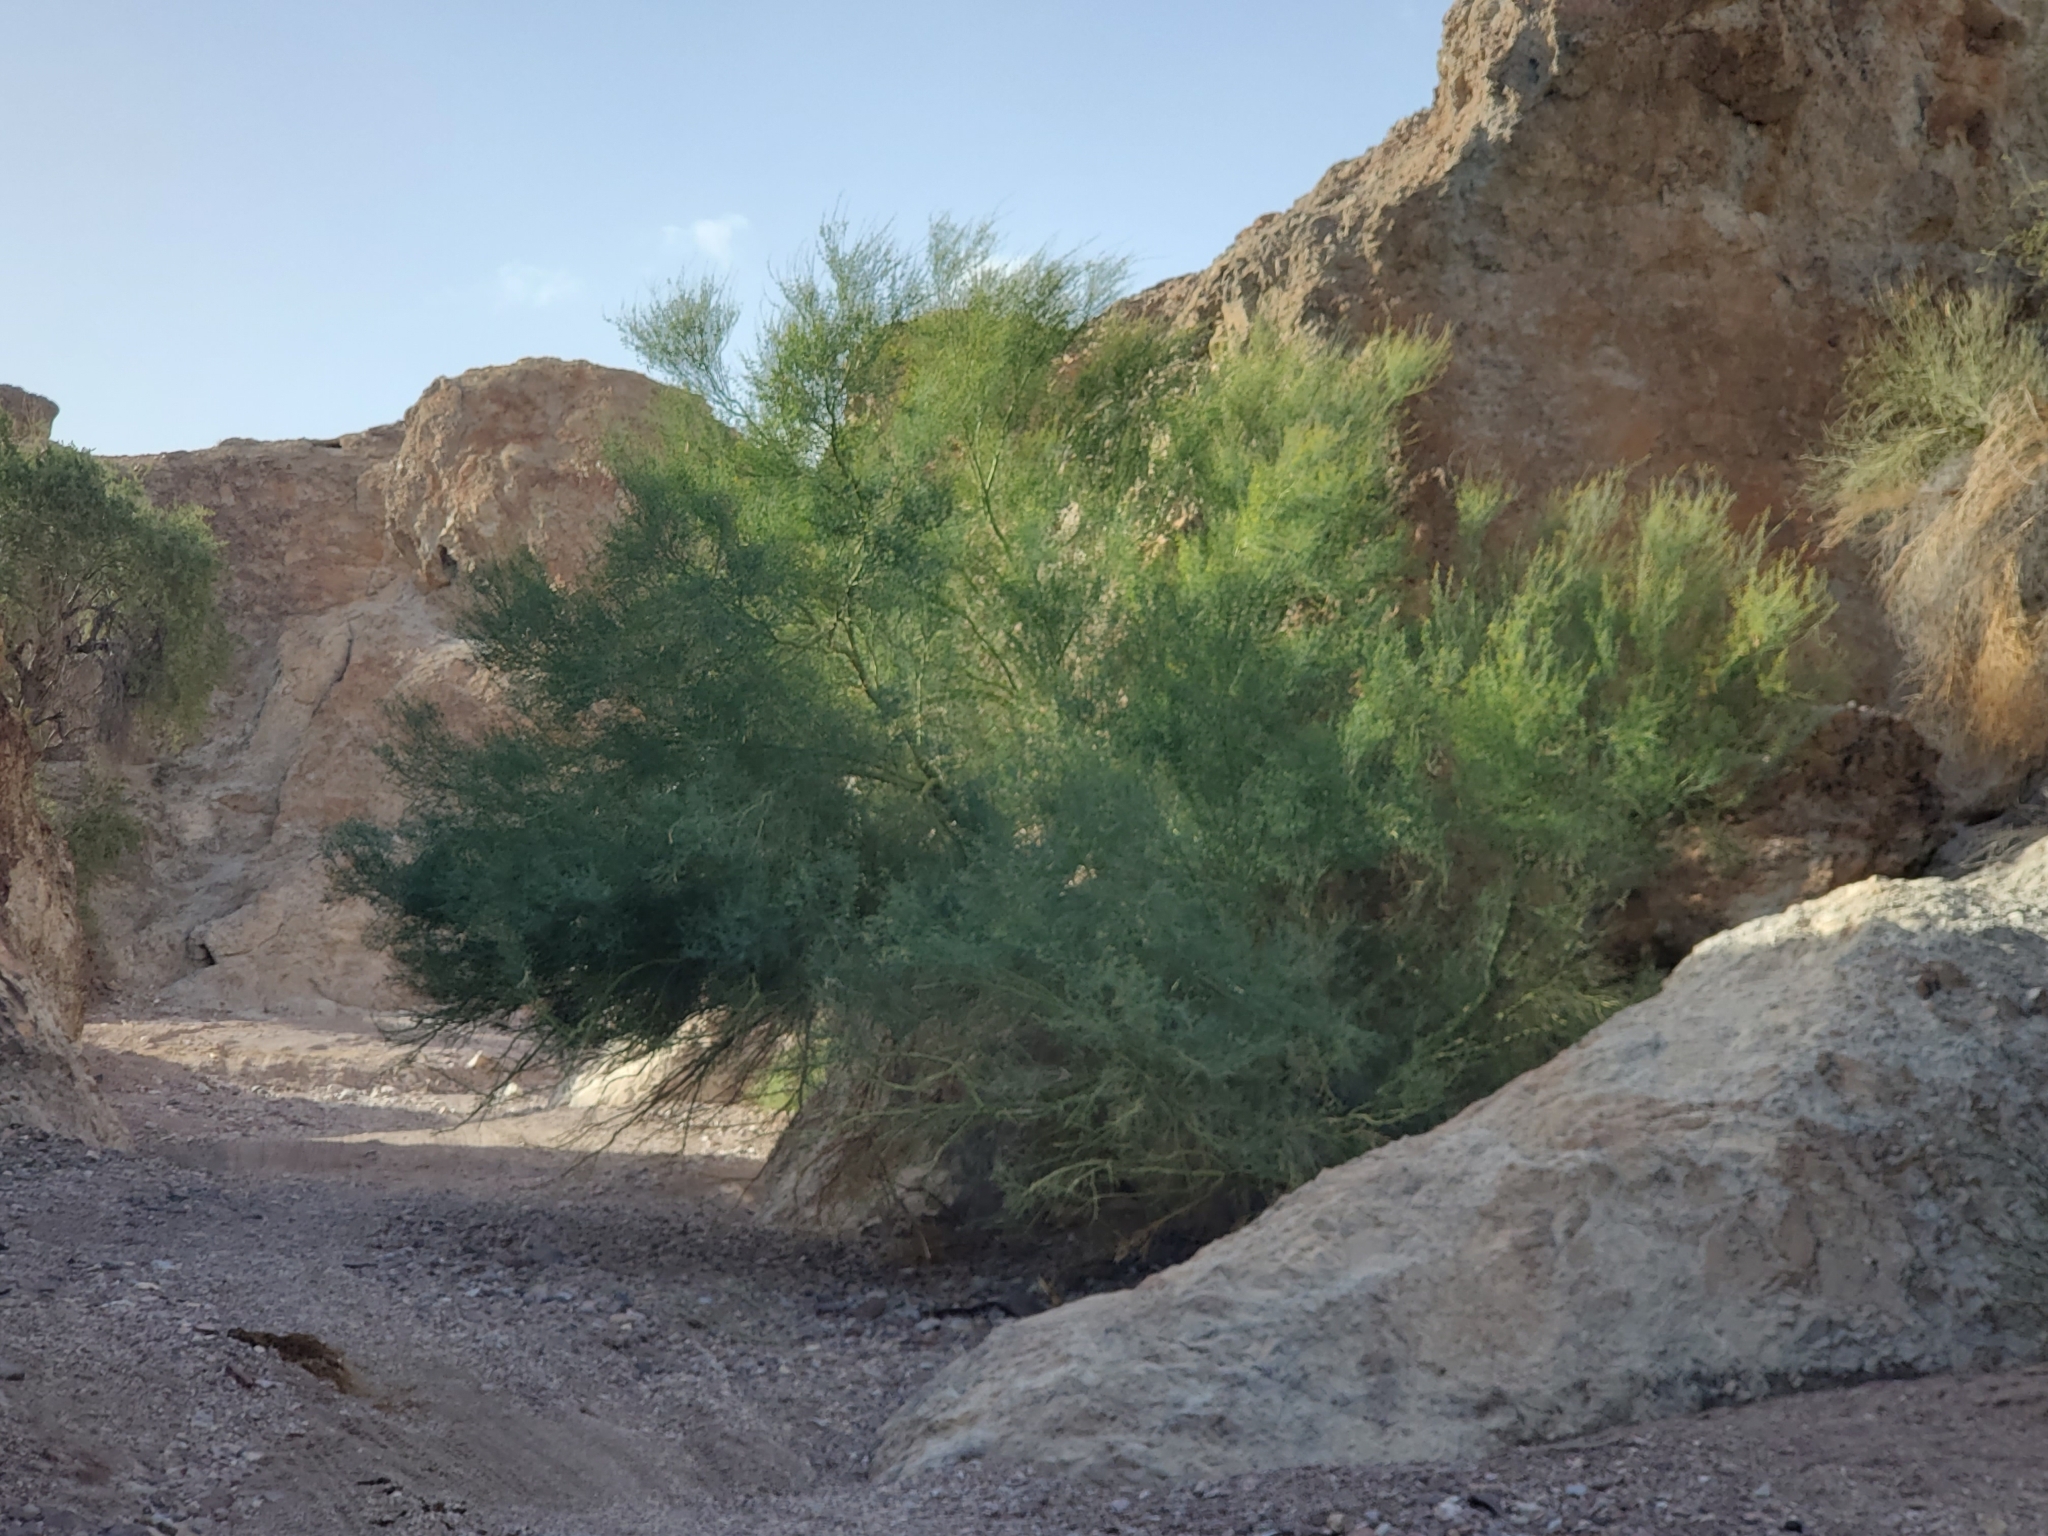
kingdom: Plantae
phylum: Tracheophyta
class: Magnoliopsida
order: Fabales
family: Fabaceae
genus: Parkinsonia
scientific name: Parkinsonia florida
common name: Blue paloverde
